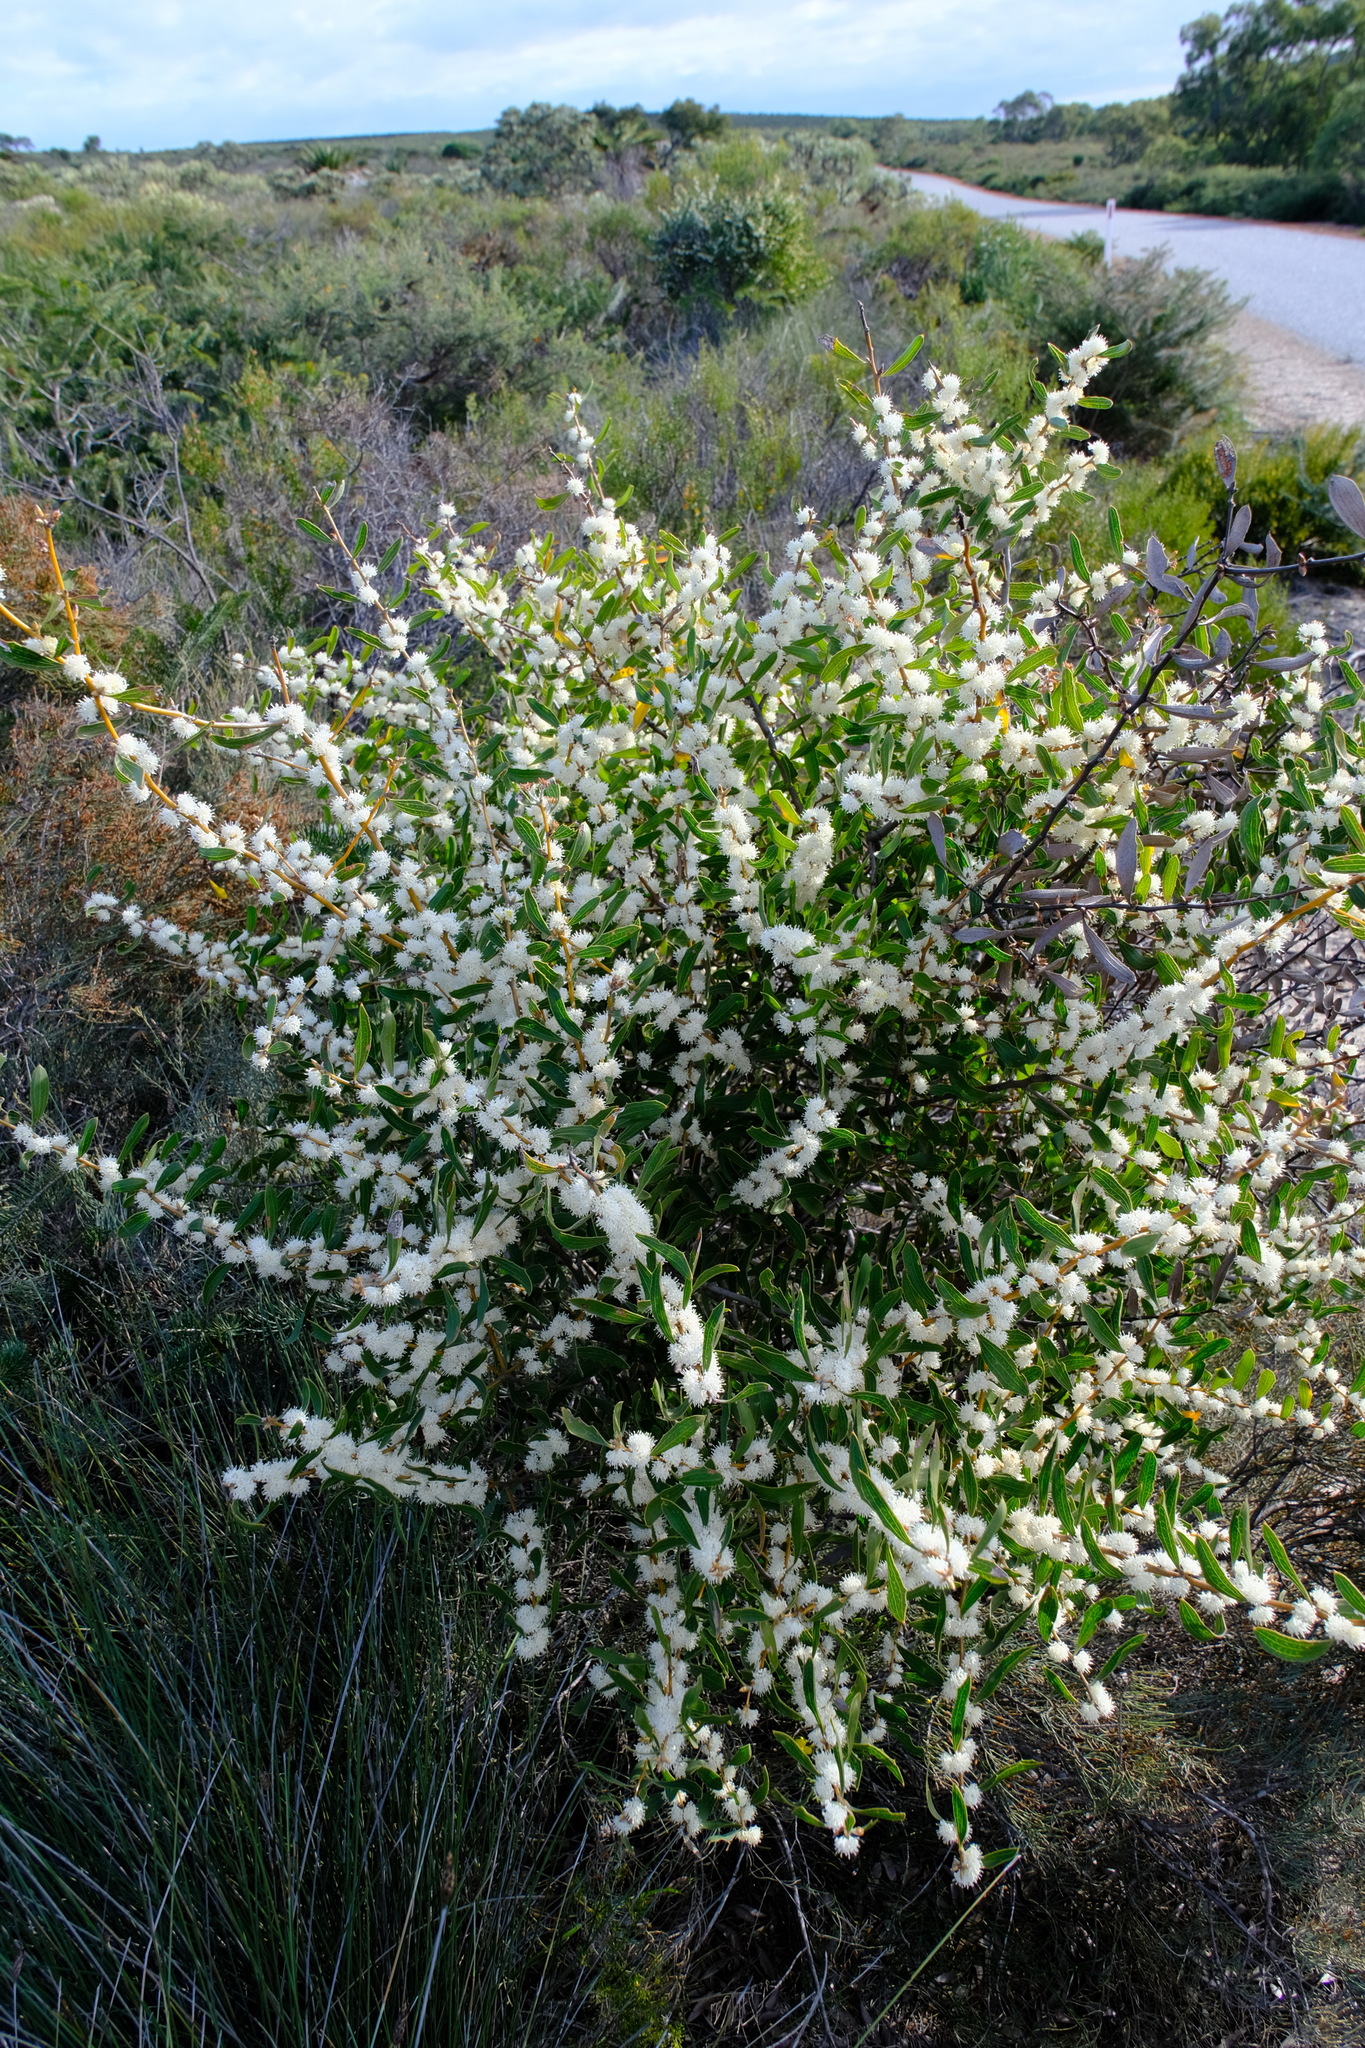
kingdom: Plantae
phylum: Tracheophyta
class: Magnoliopsida
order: Proteales
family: Proteaceae
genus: Hakea
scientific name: Hakea anadenia
